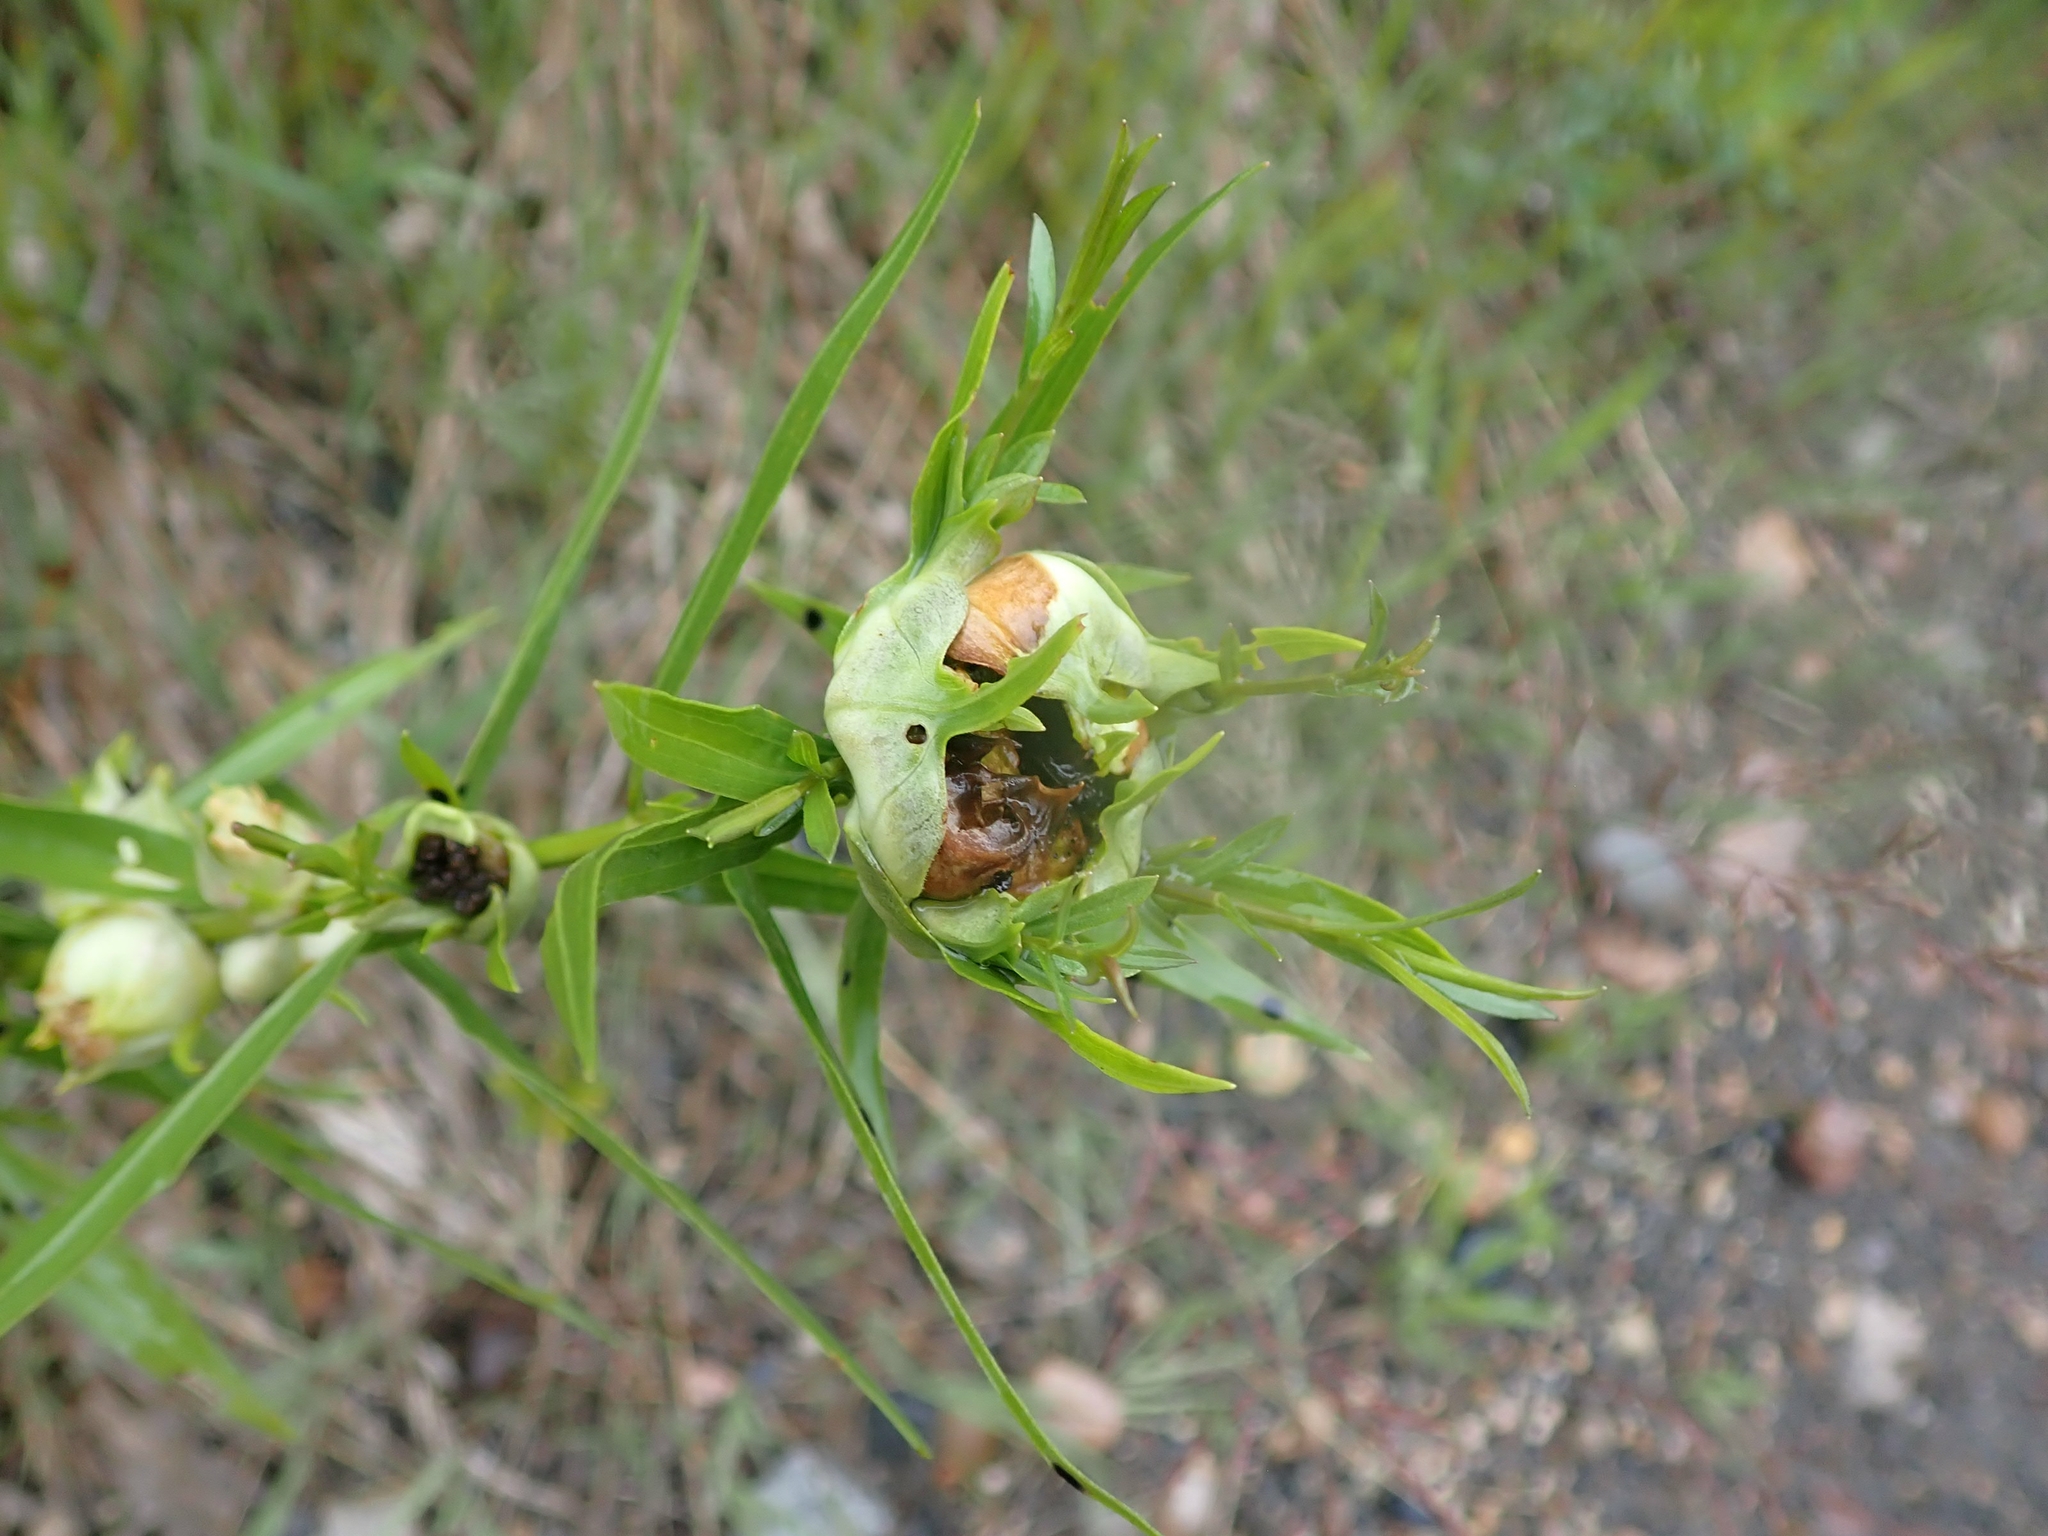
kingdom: Animalia
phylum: Arthropoda
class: Insecta
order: Diptera
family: Cecidomyiidae
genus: Rhopalomyia
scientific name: Rhopalomyia lobata
